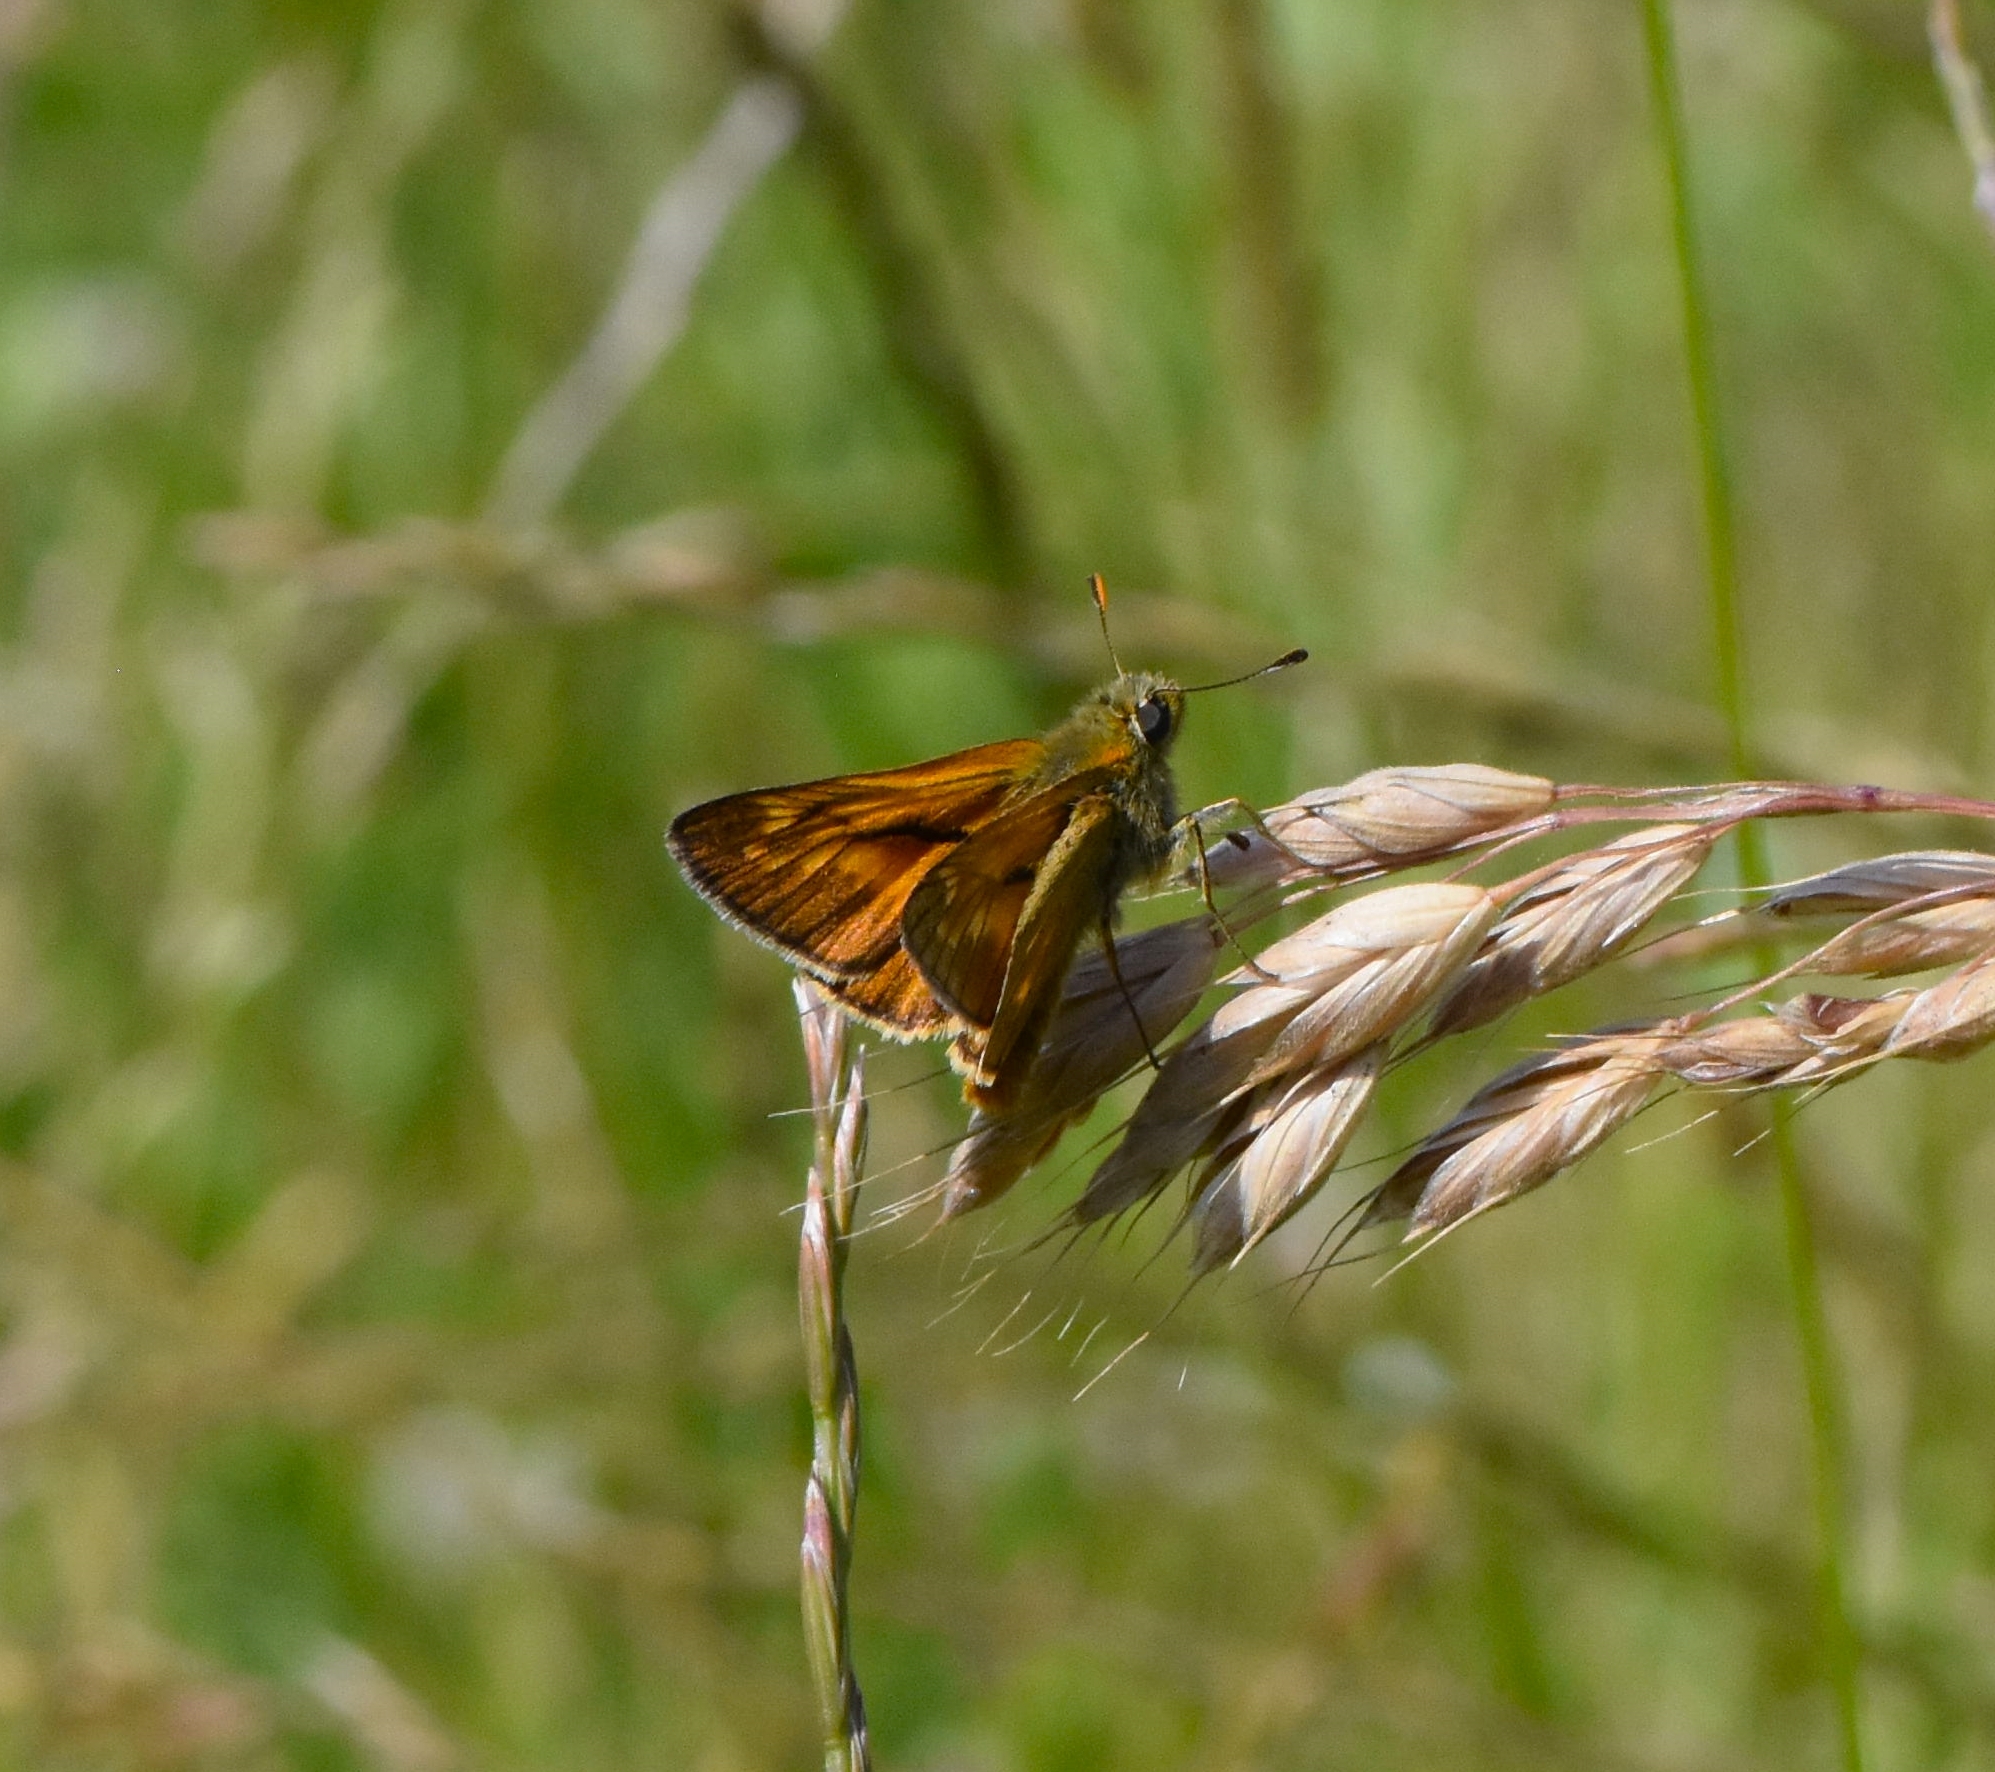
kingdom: Animalia
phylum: Arthropoda
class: Insecta
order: Lepidoptera
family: Hesperiidae
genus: Ochlodes
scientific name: Ochlodes venata
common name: Large skipper
